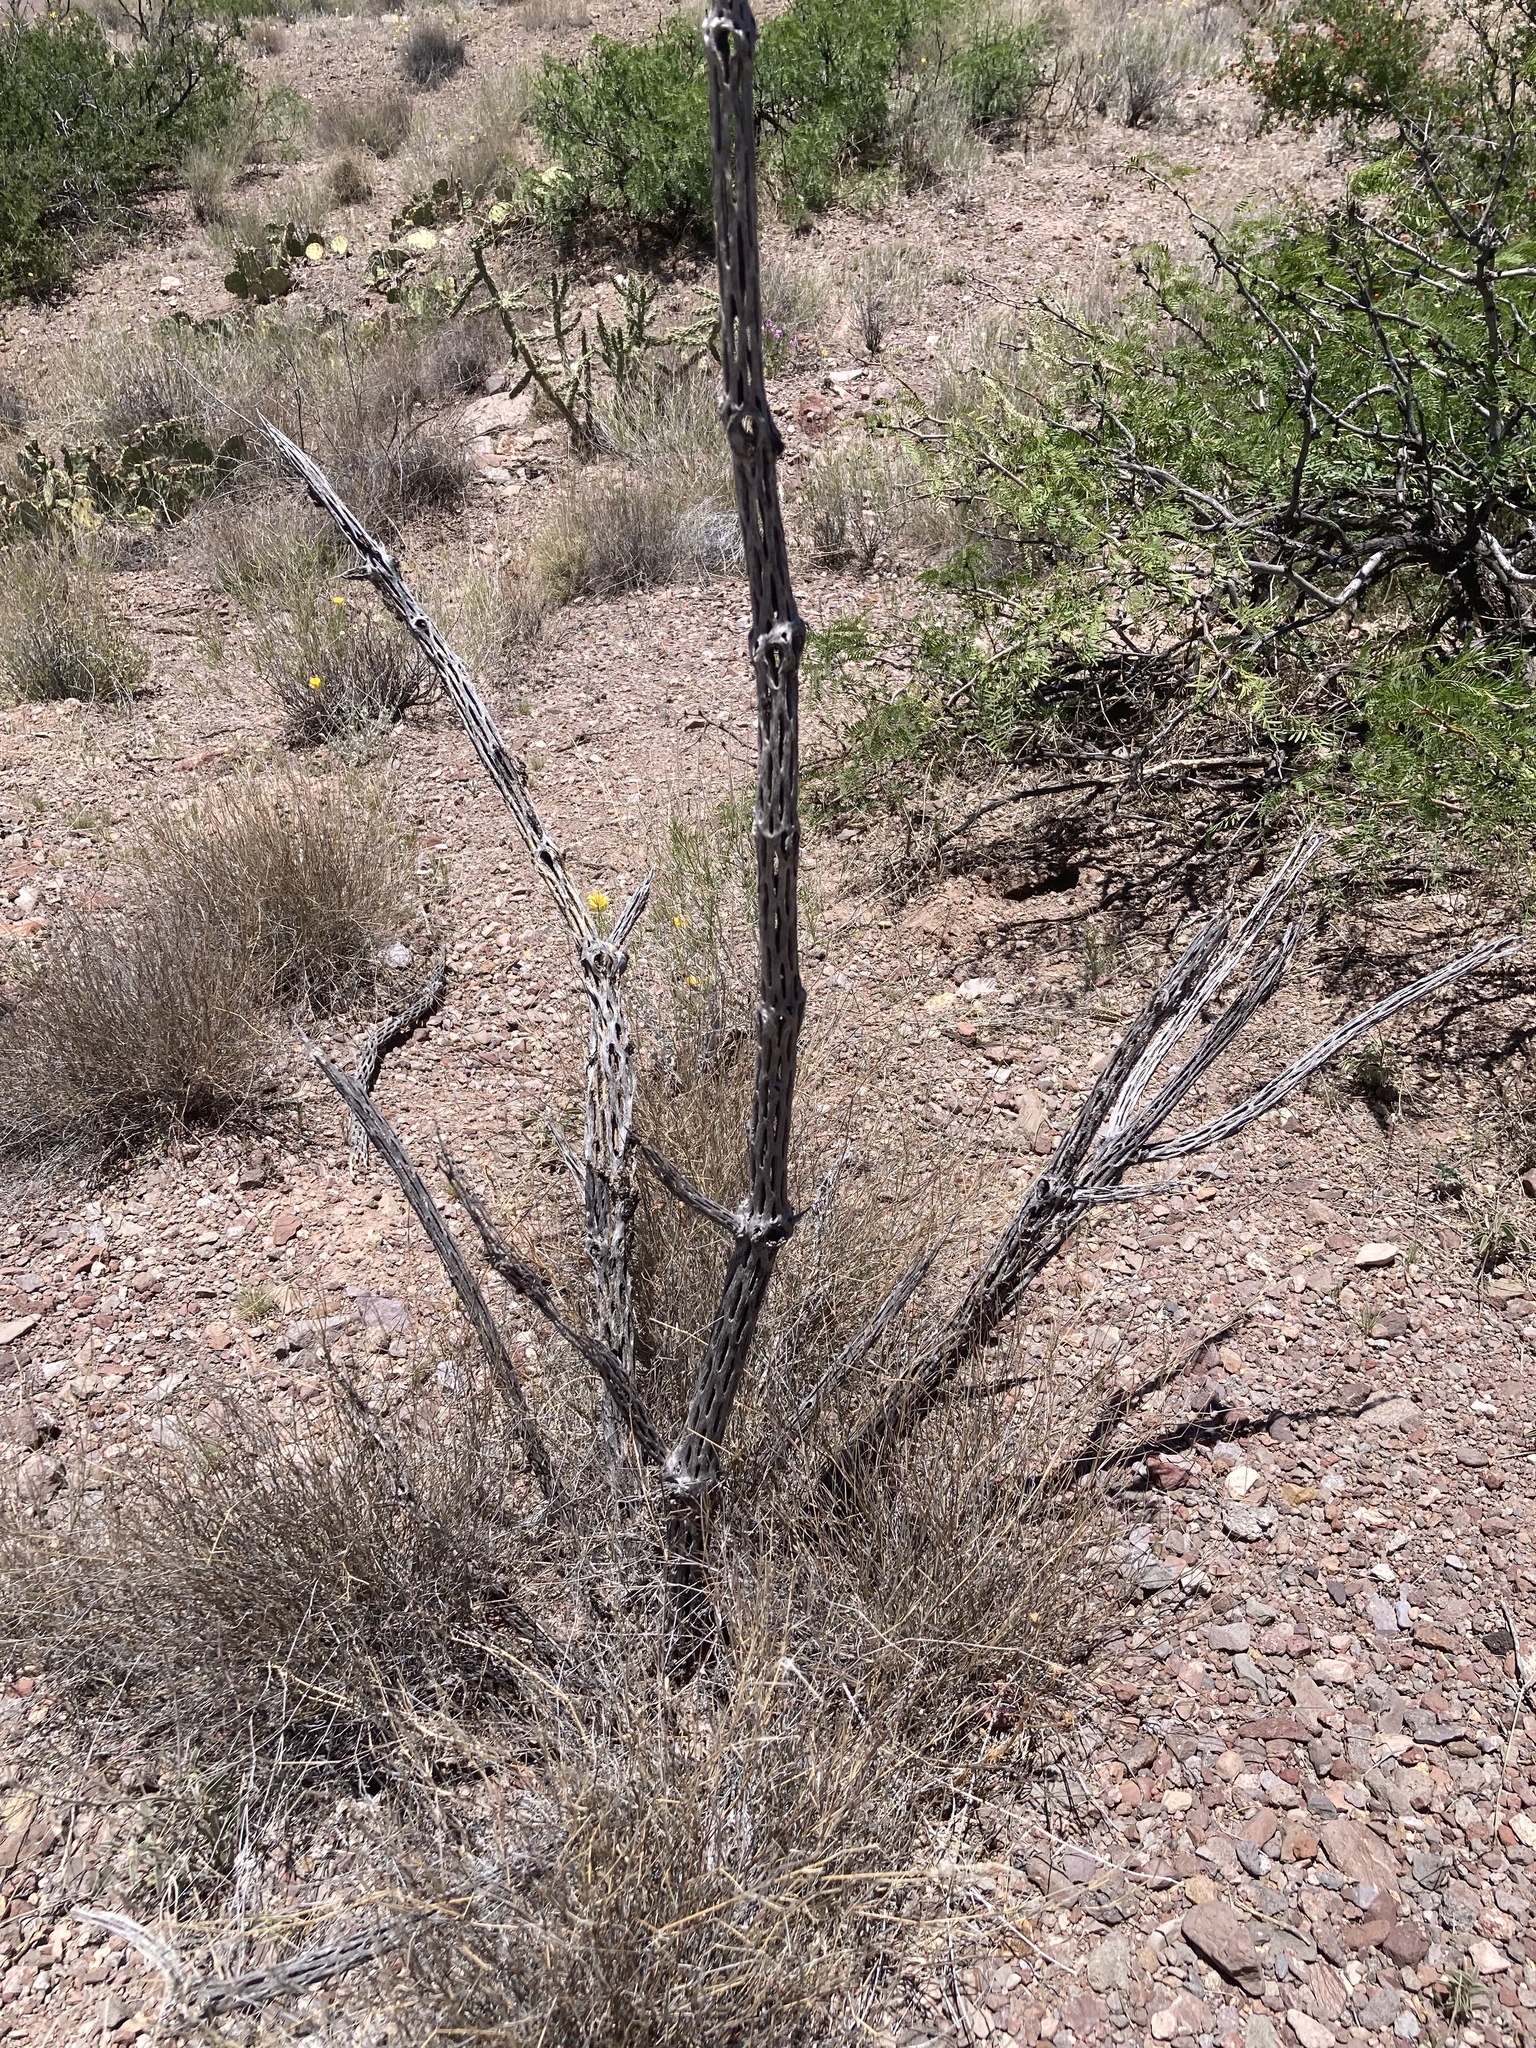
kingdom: Plantae
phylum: Tracheophyta
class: Magnoliopsida
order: Caryophyllales
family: Cactaceae
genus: Cylindropuntia
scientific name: Cylindropuntia imbricata
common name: Candelabrum cactus
